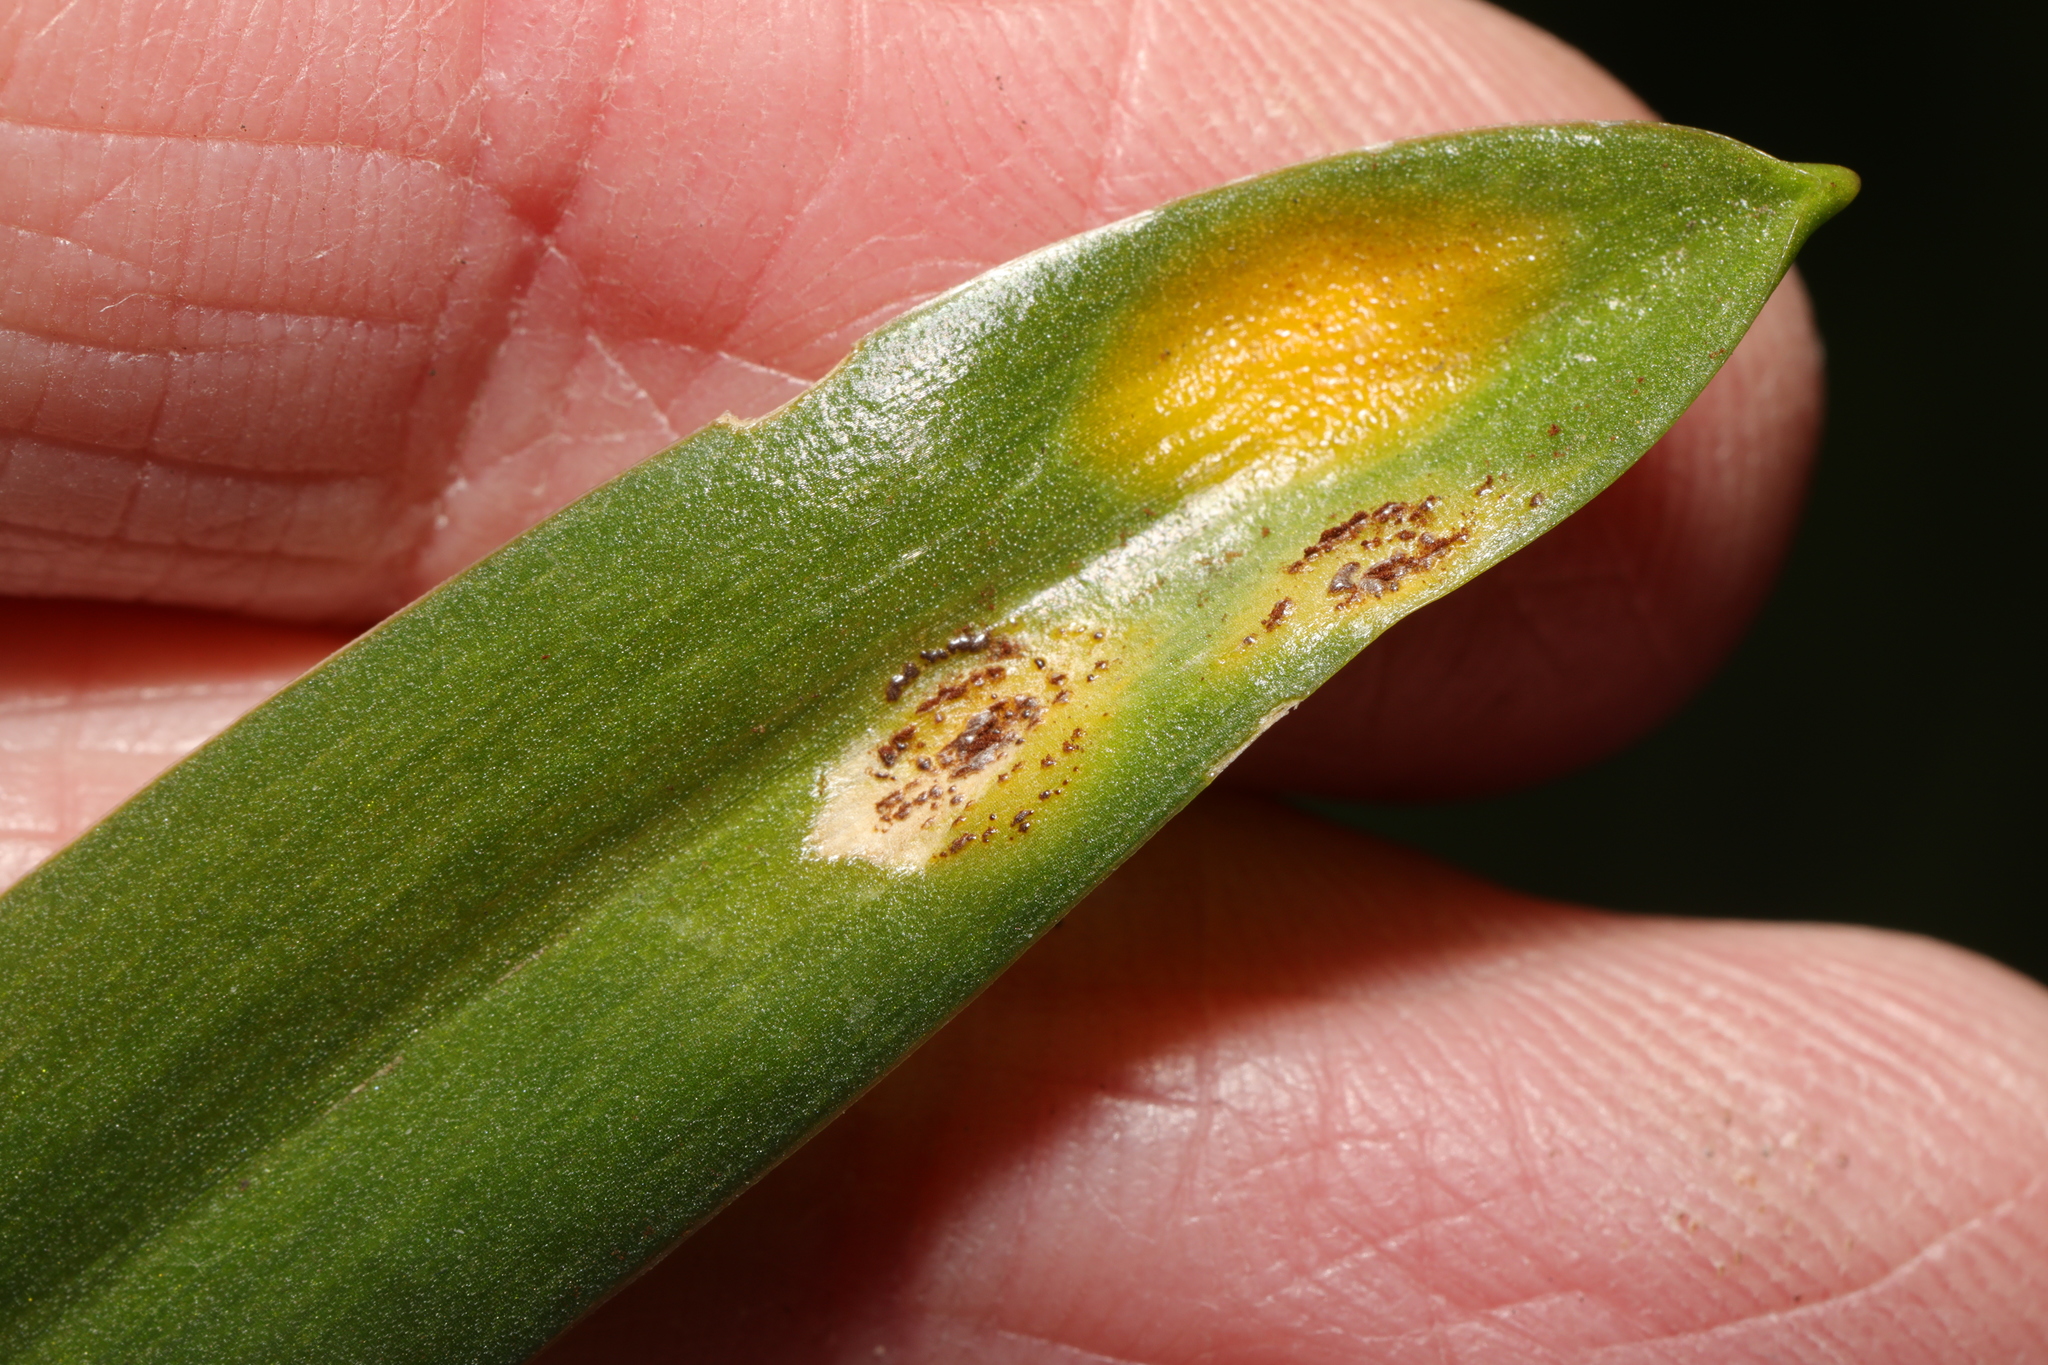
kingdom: Fungi
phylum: Basidiomycota
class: Pucciniomycetes
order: Pucciniales
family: Pucciniaceae
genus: Uromyces
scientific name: Uromyces hyacinthi
